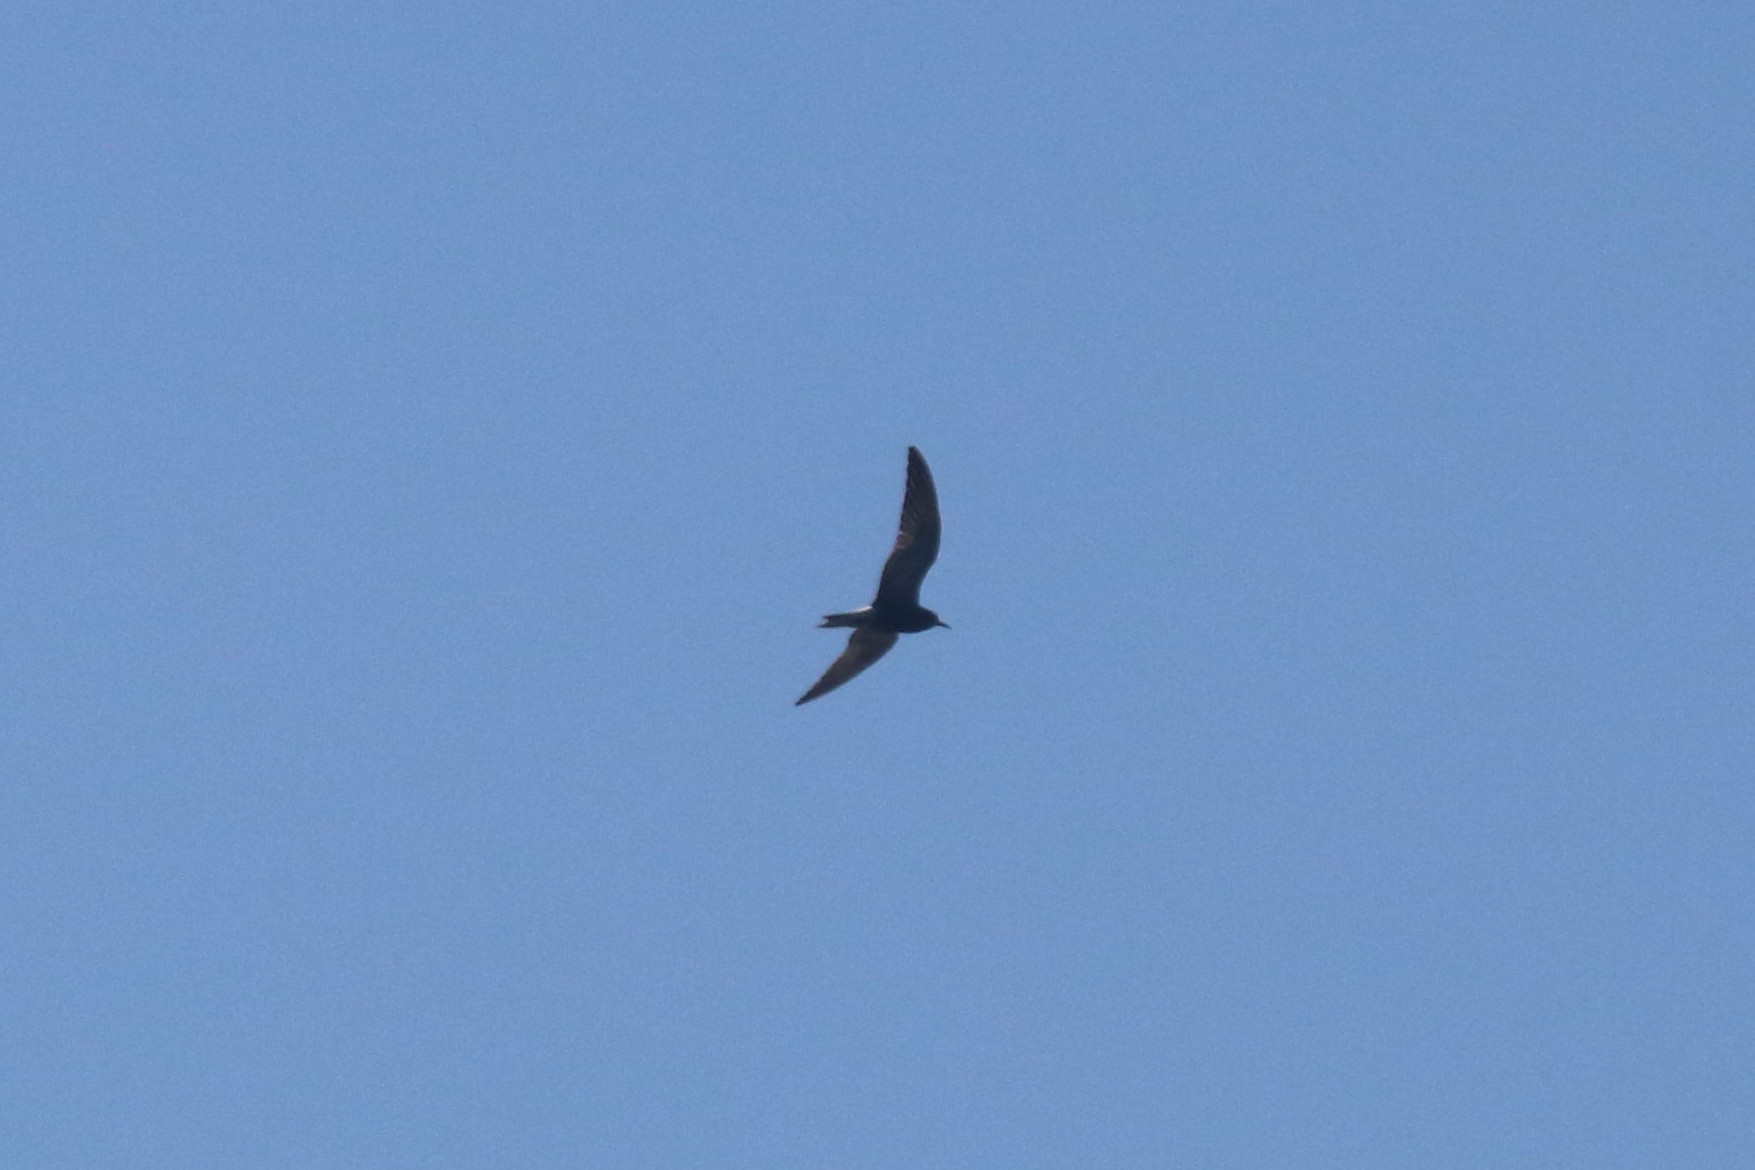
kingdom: Animalia
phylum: Chordata
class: Aves
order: Charadriiformes
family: Laridae
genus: Chlidonias
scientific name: Chlidonias niger
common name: Black tern
